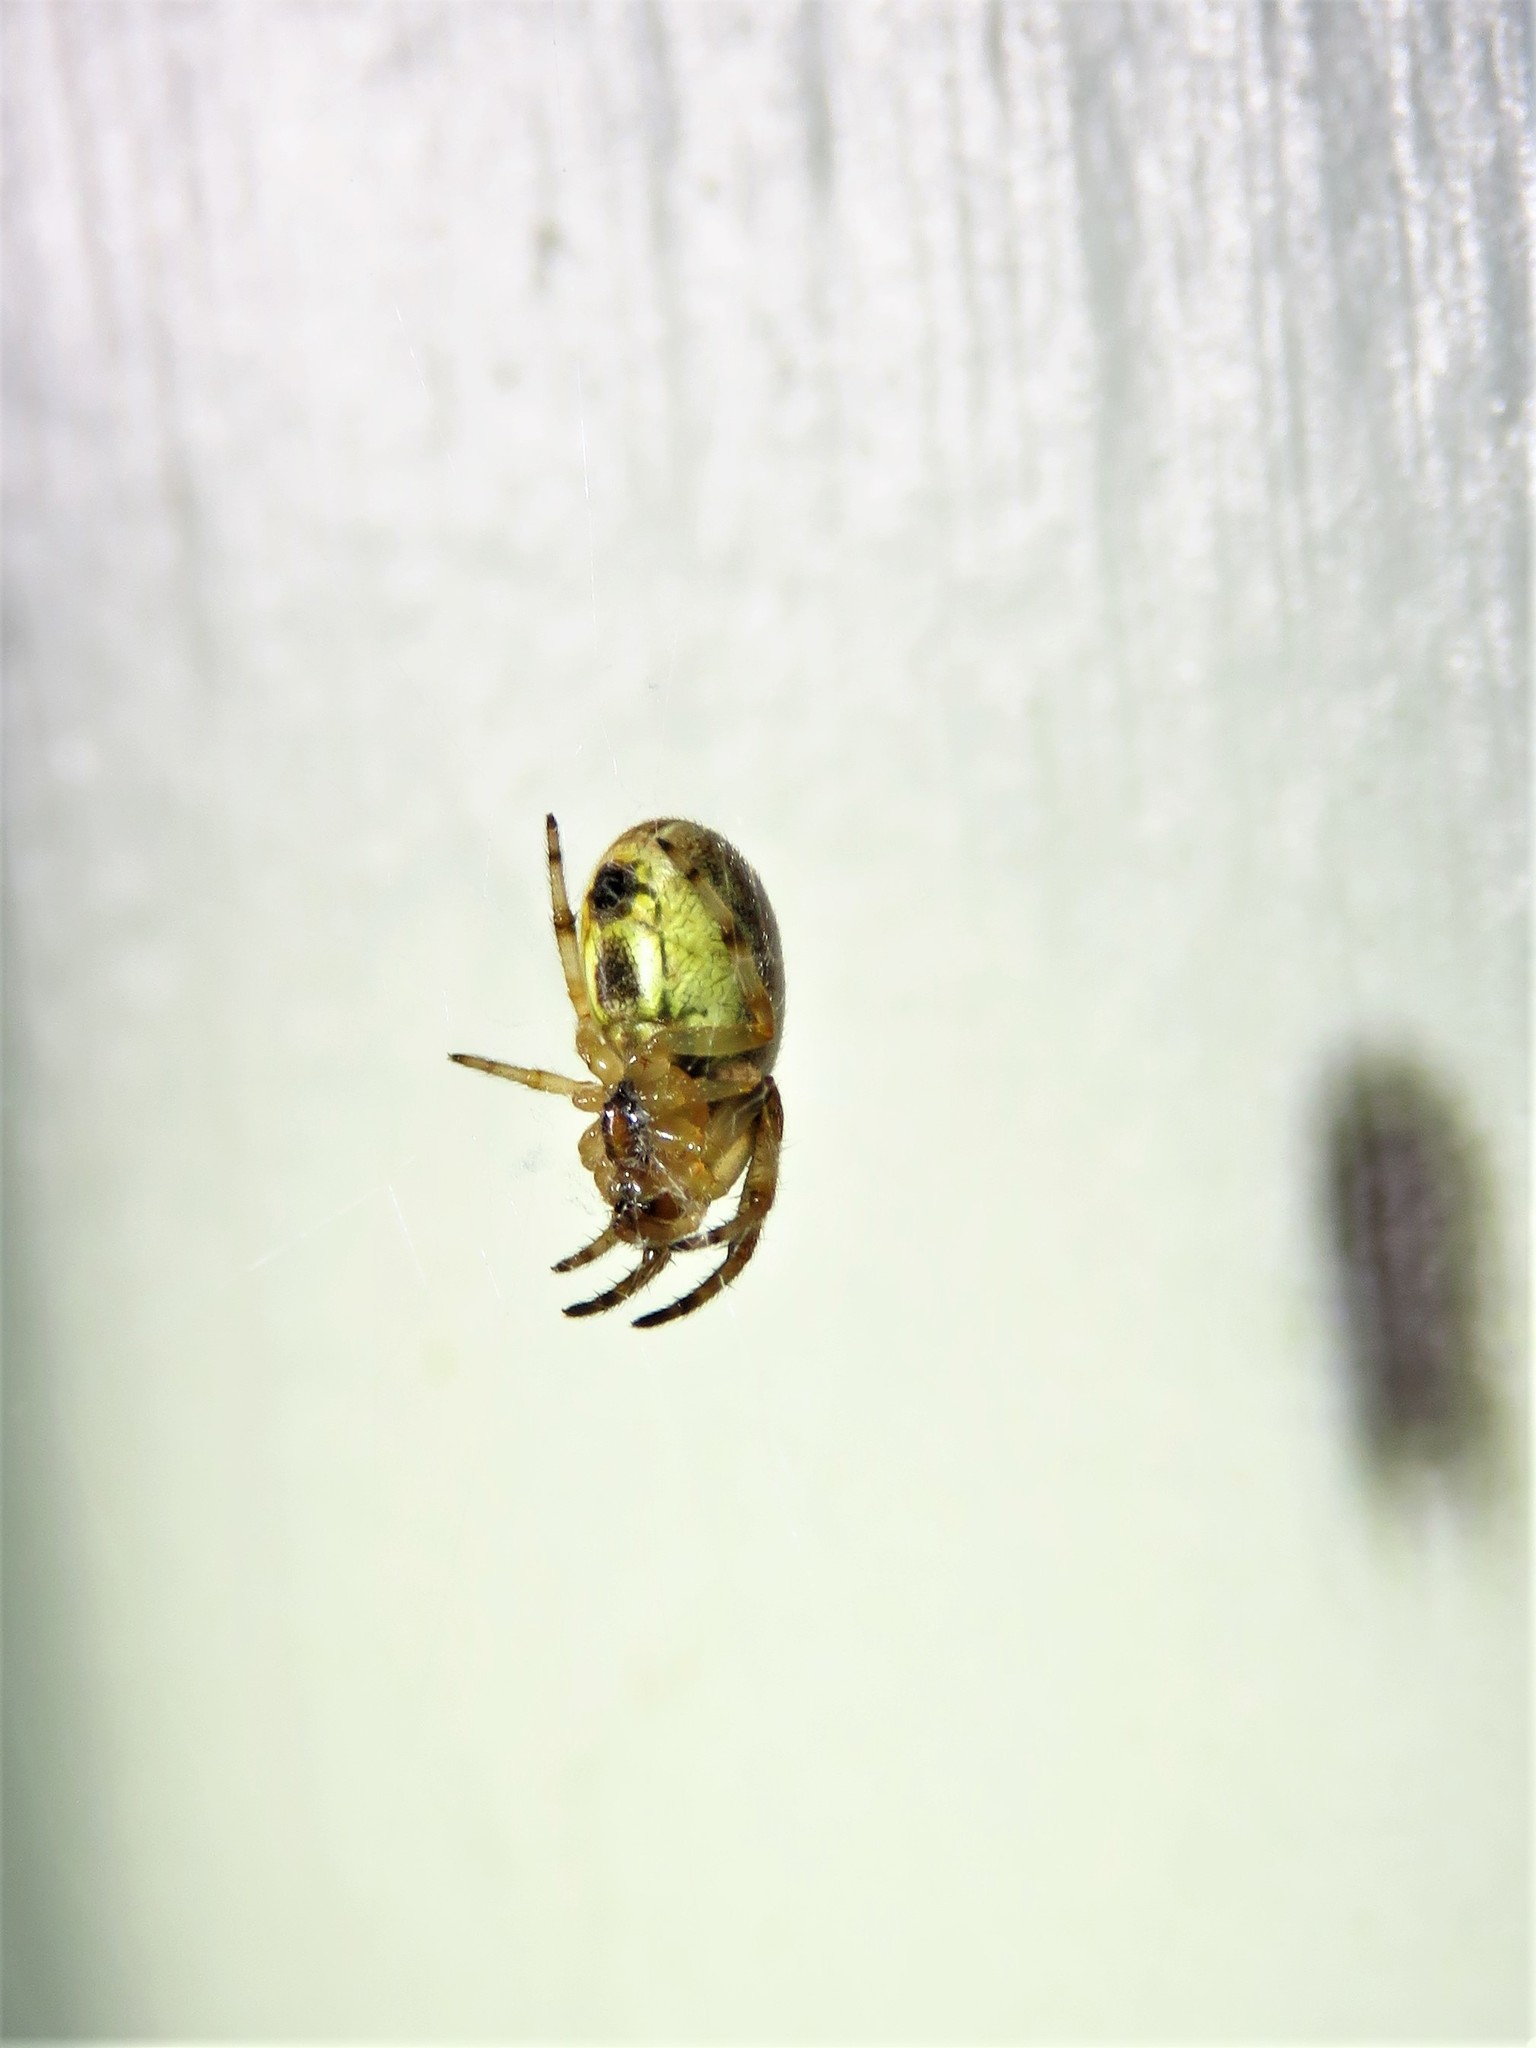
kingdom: Animalia
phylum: Arthropoda
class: Arachnida
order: Araneae
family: Araneidae
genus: Larinioides
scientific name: Larinioides cornutus
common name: Furrow orbweaver
